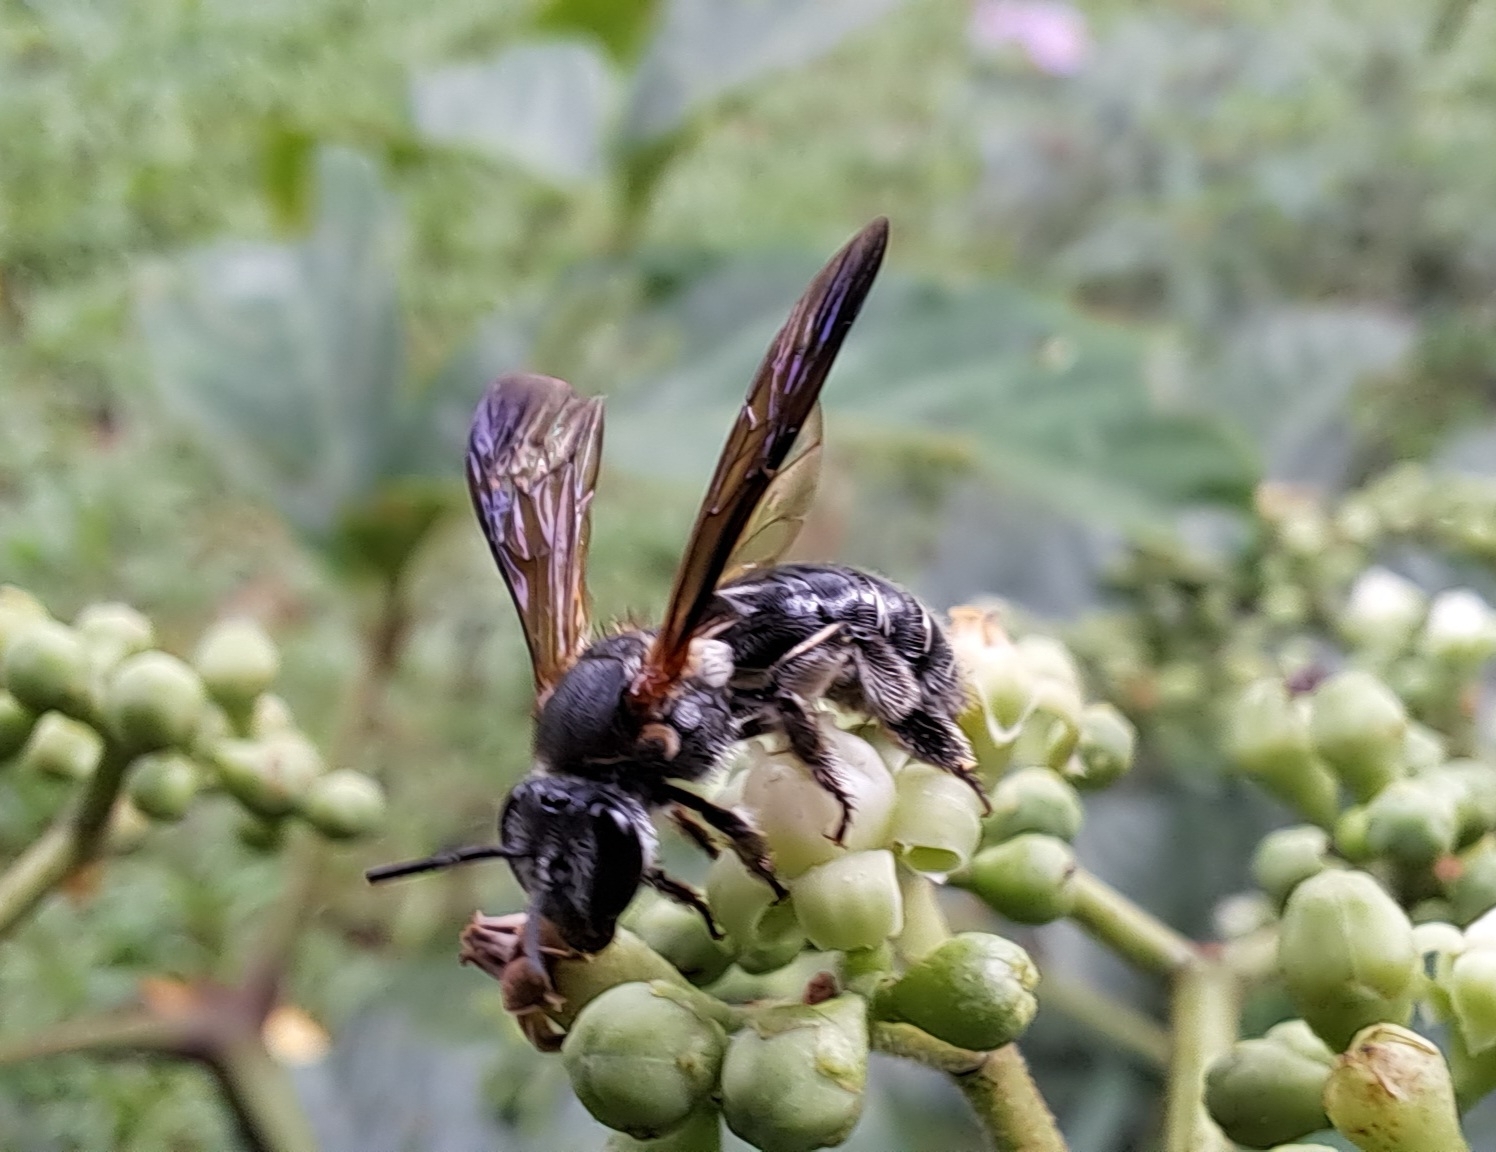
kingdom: Animalia
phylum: Arthropoda
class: Insecta
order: Hymenoptera
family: Halictidae
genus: Nomia
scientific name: Nomia fuscipennis
